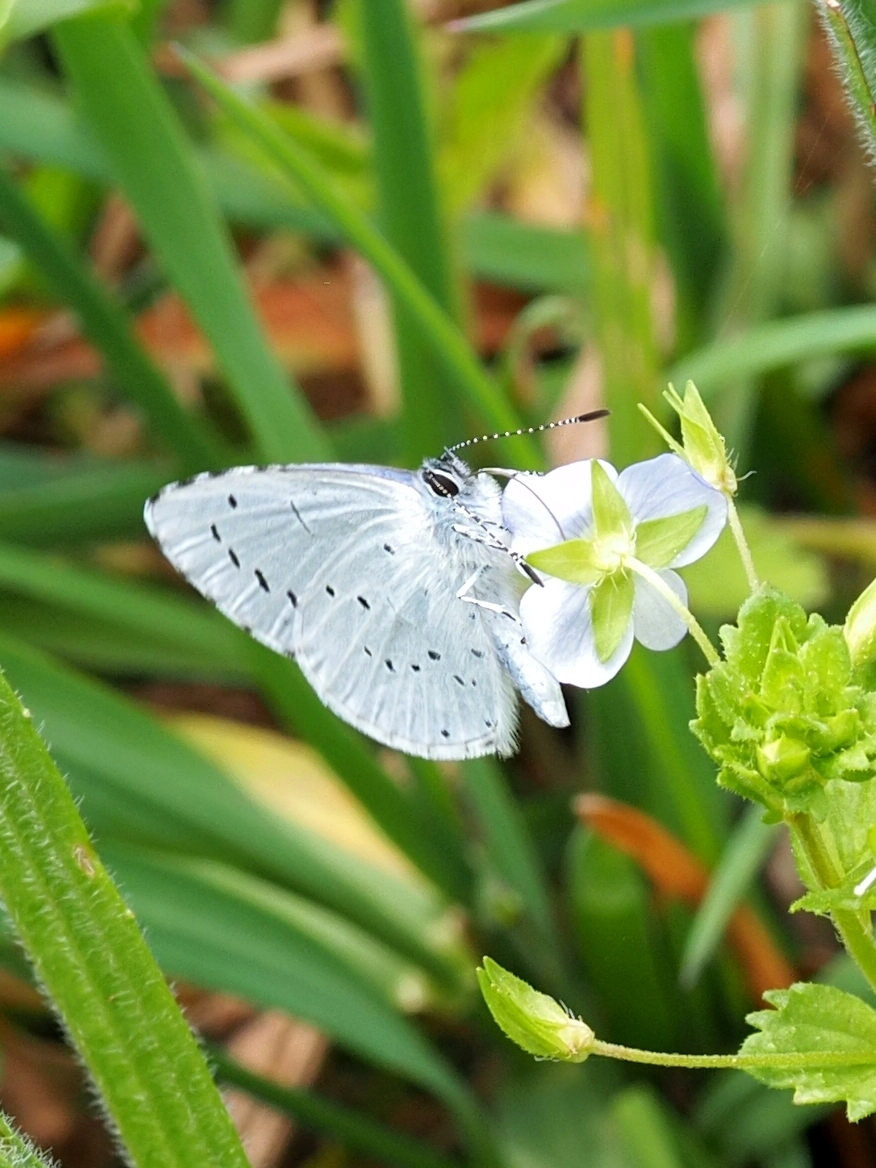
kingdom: Animalia
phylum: Arthropoda
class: Insecta
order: Lepidoptera
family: Lycaenidae
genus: Celastrina
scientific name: Celastrina argiolus
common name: Holly blue
